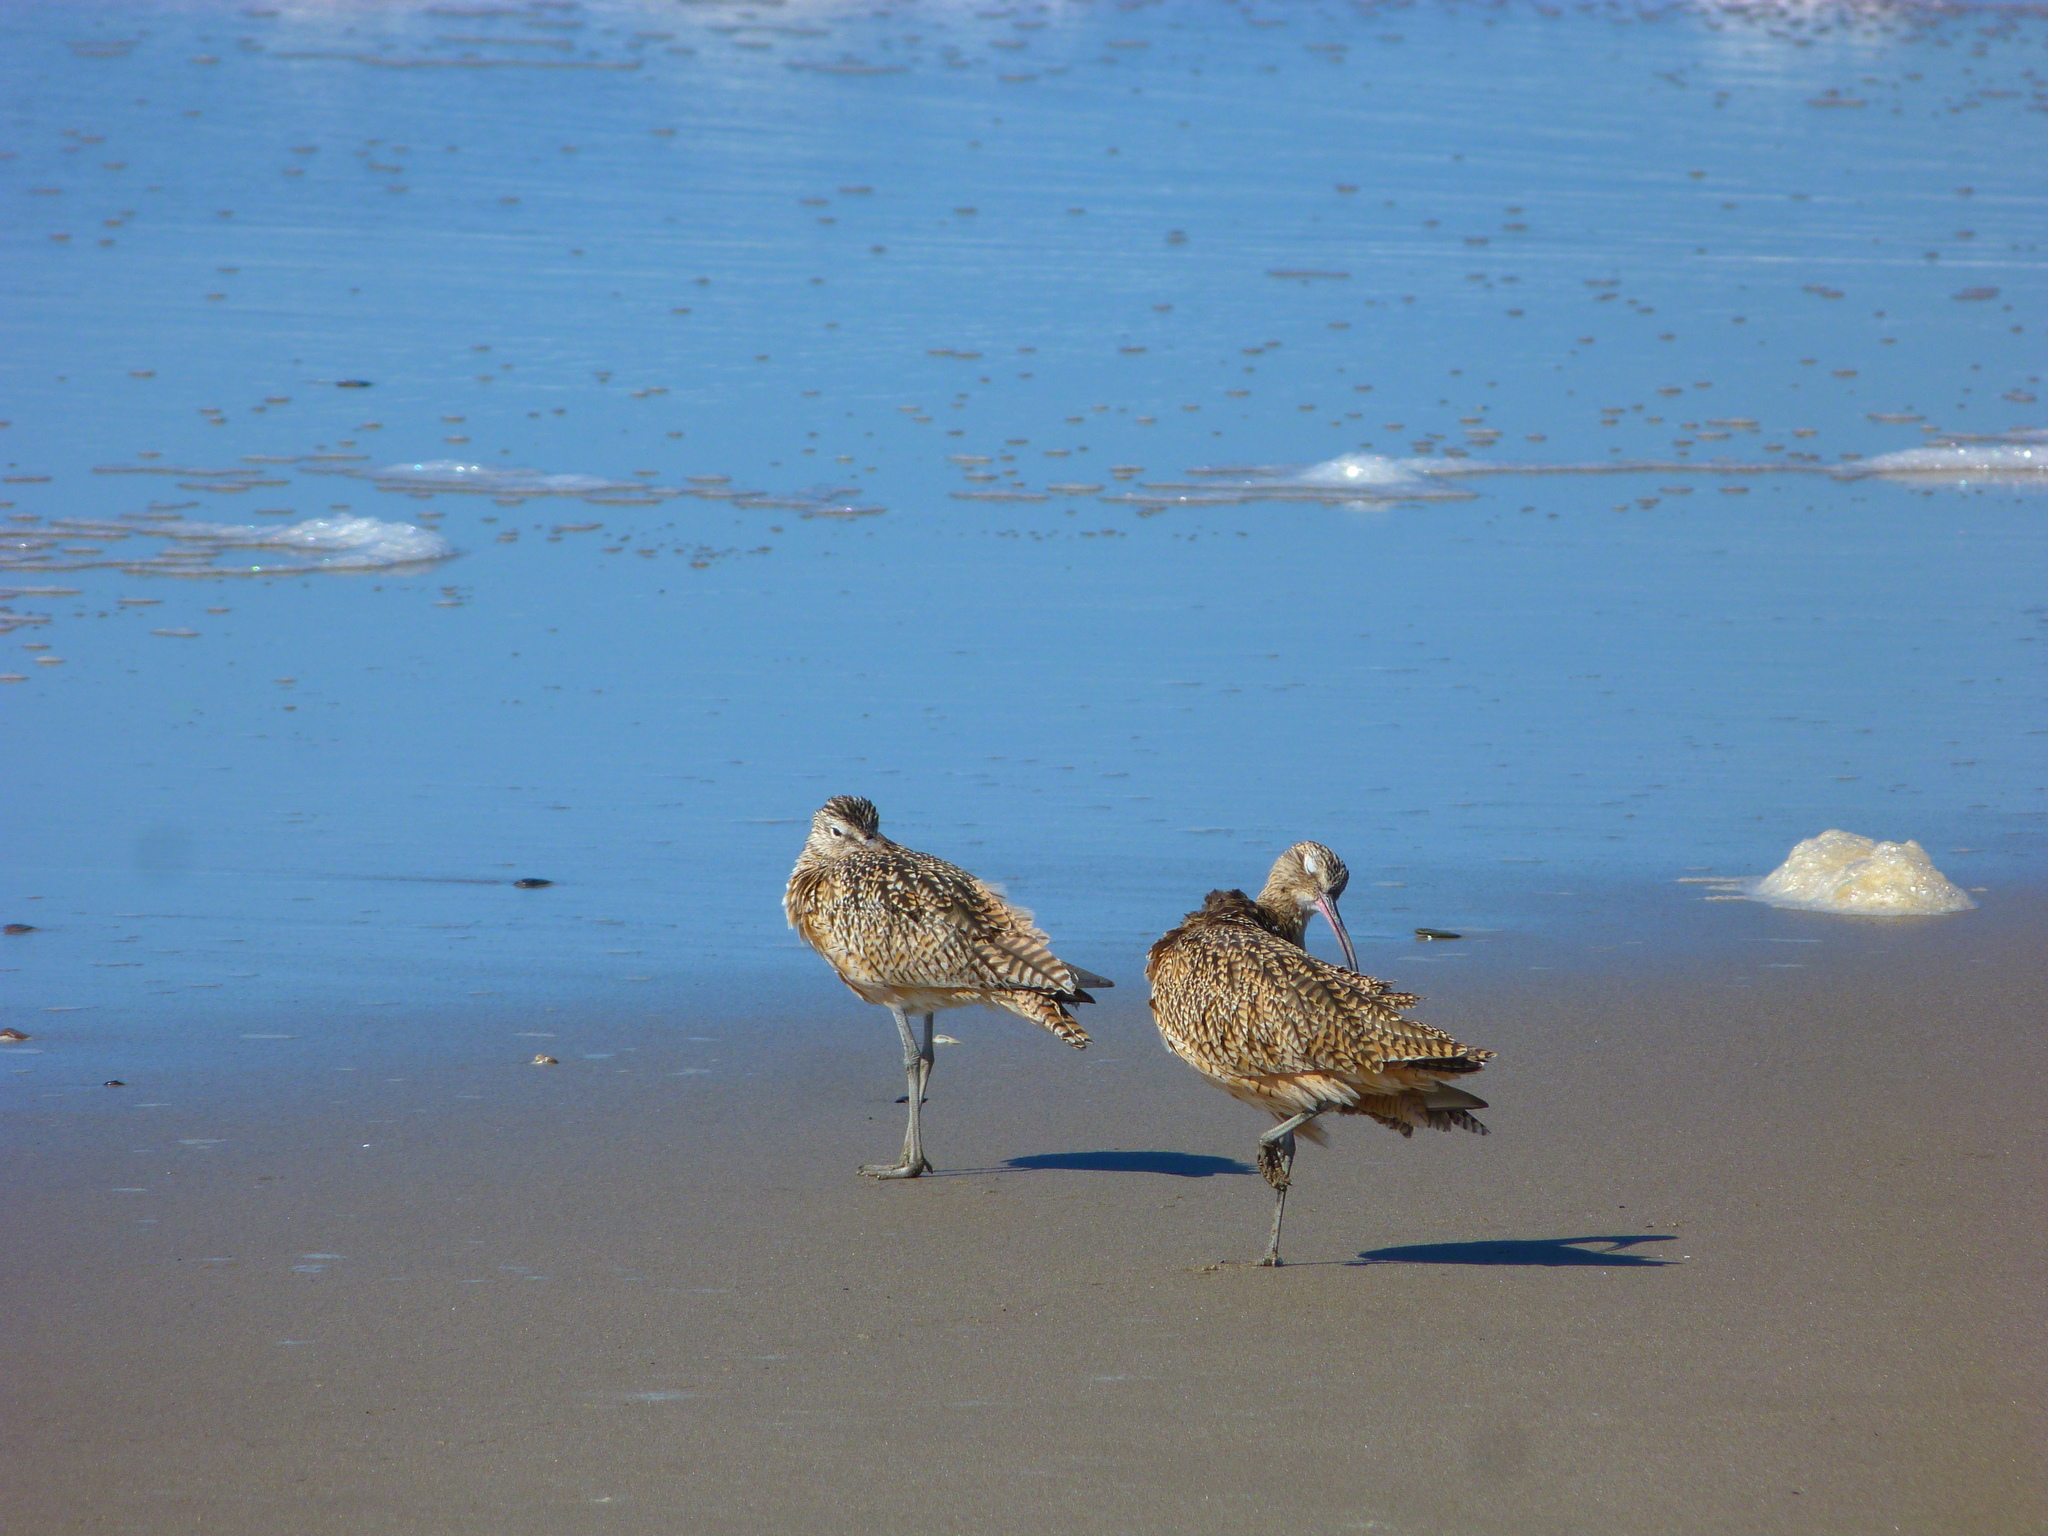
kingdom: Animalia
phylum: Chordata
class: Aves
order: Charadriiformes
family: Scolopacidae
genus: Numenius
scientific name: Numenius phaeopus
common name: Whimbrel
